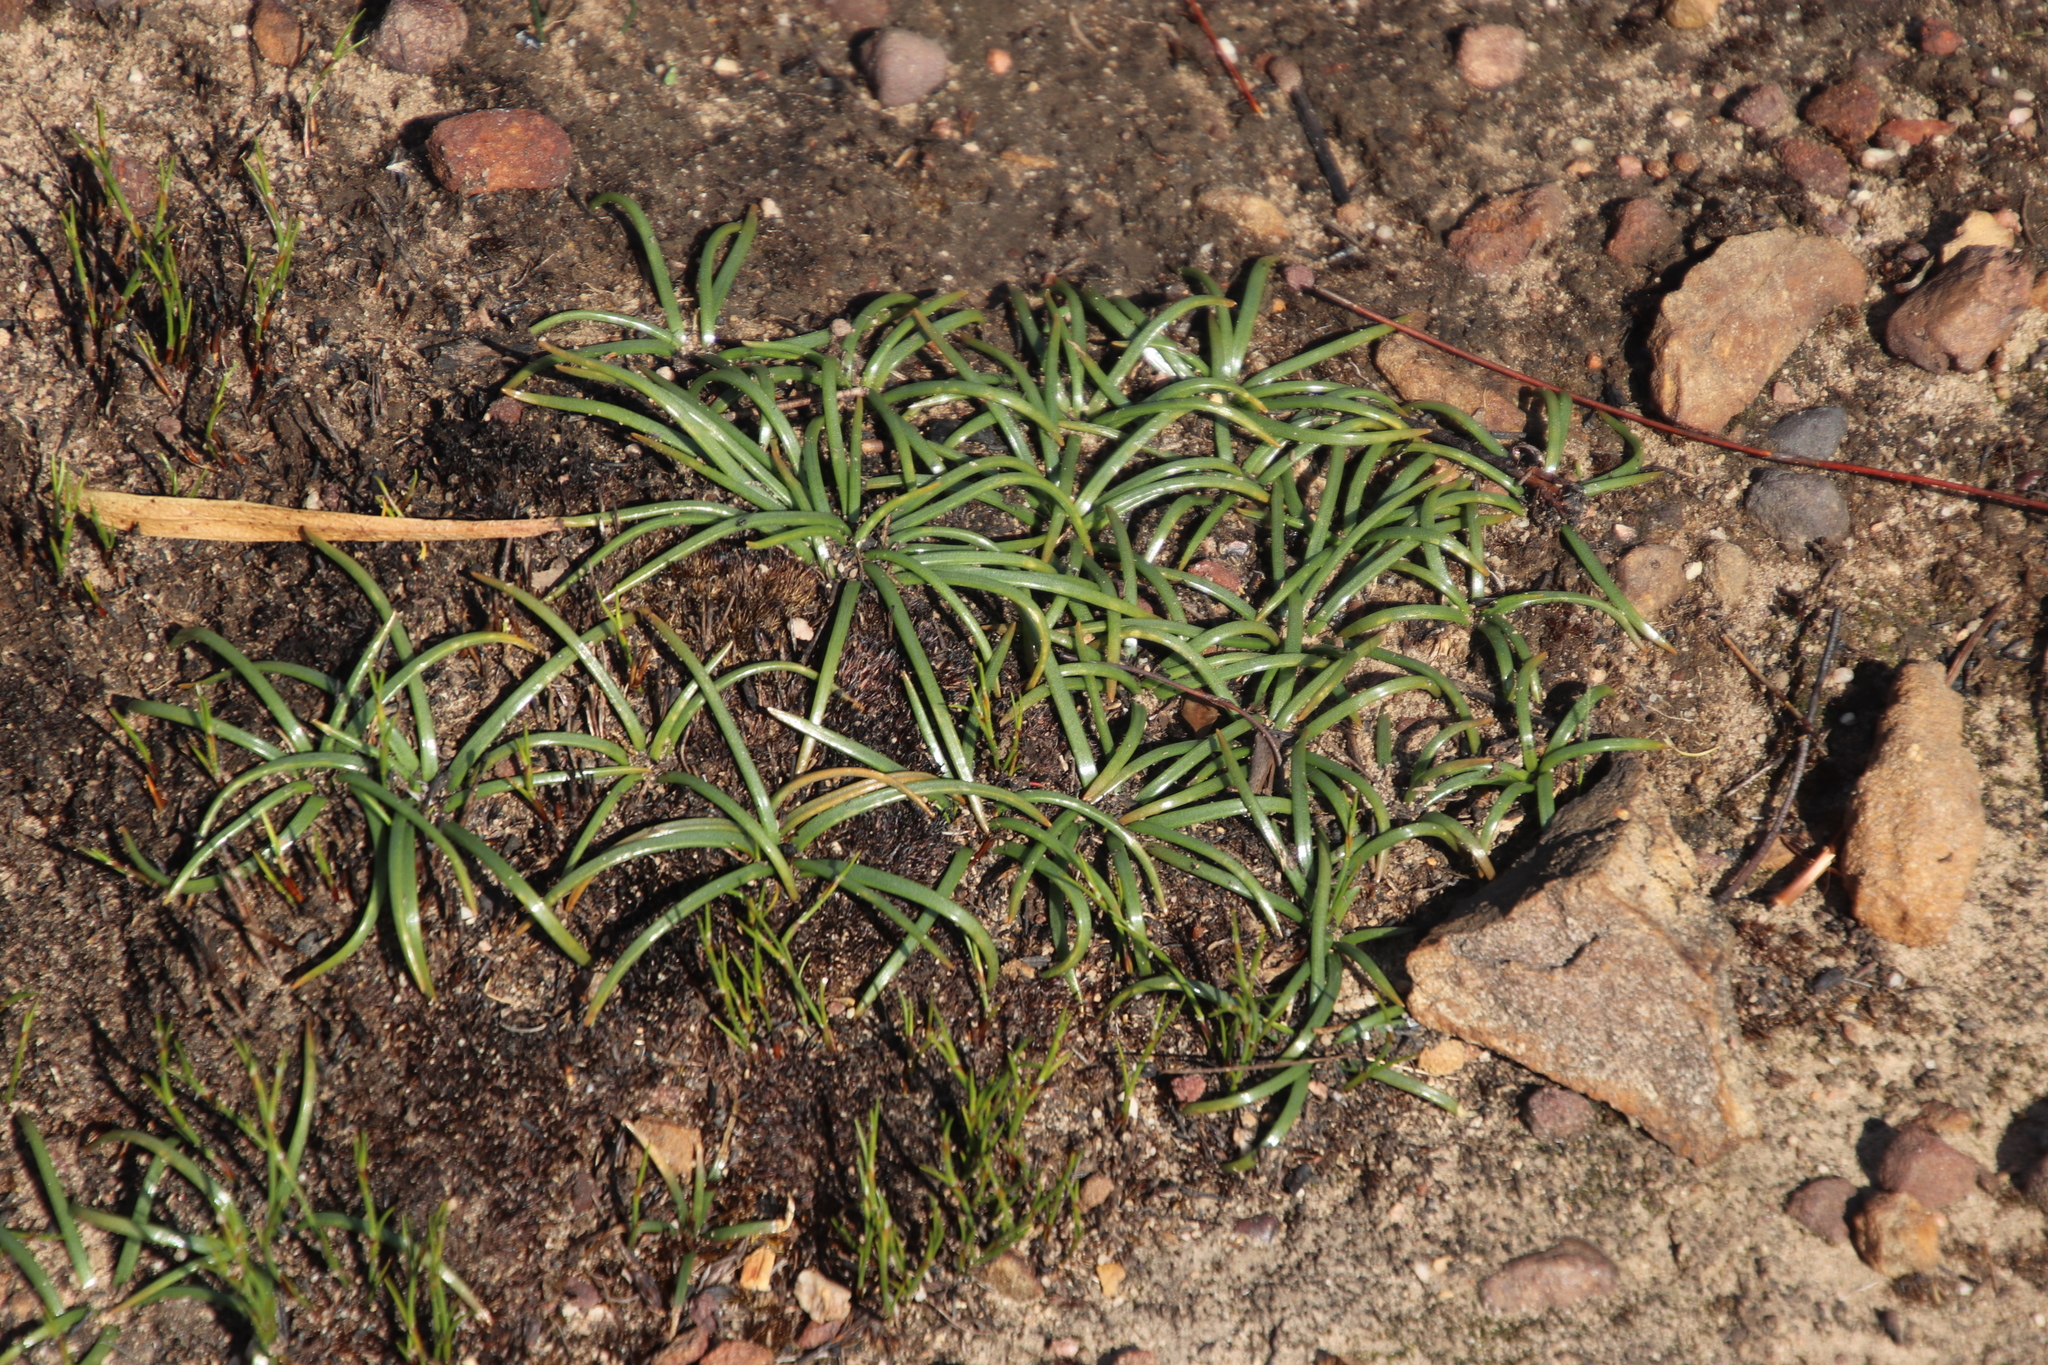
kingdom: Plantae
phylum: Tracheophyta
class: Liliopsida
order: Asparagales
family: Asparagaceae
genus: Drimia
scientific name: Drimia convallarioides
